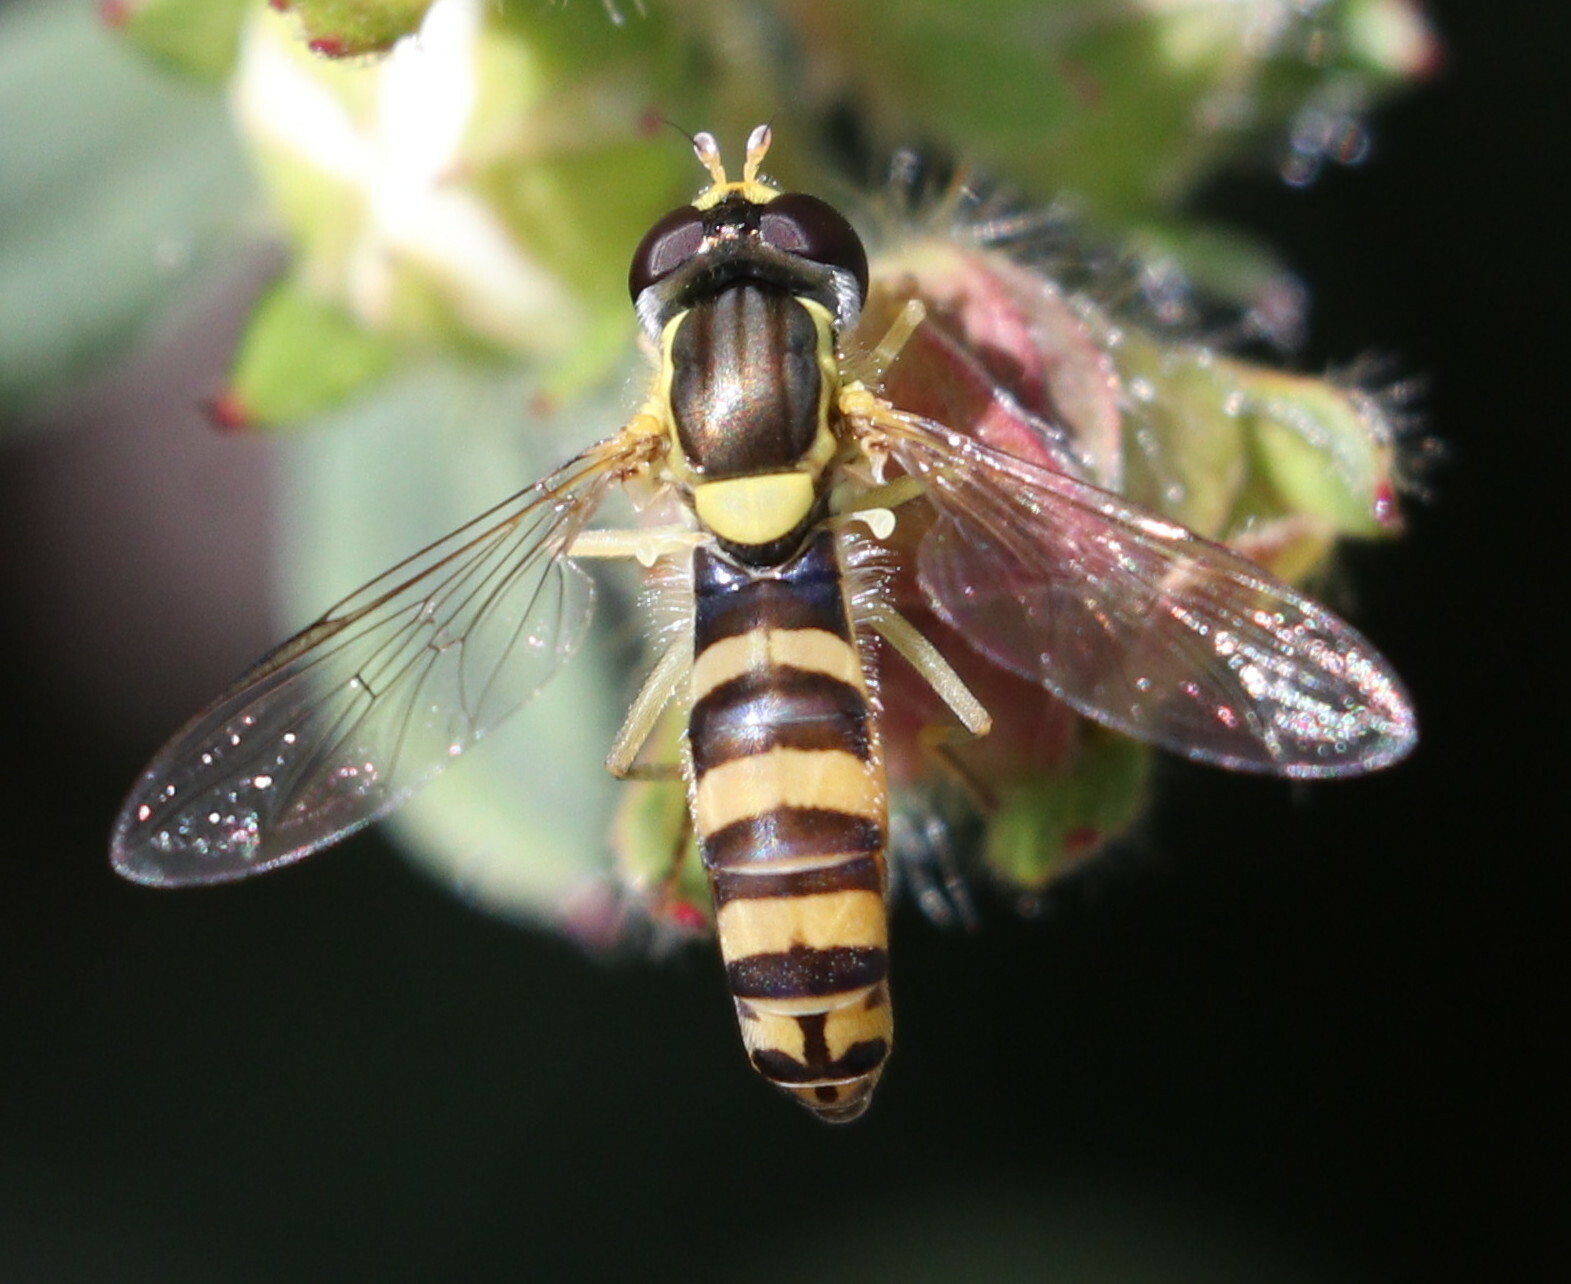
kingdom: Animalia
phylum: Arthropoda
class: Insecta
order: Diptera
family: Syrphidae
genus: Sphaerophoria
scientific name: Sphaerophoria
